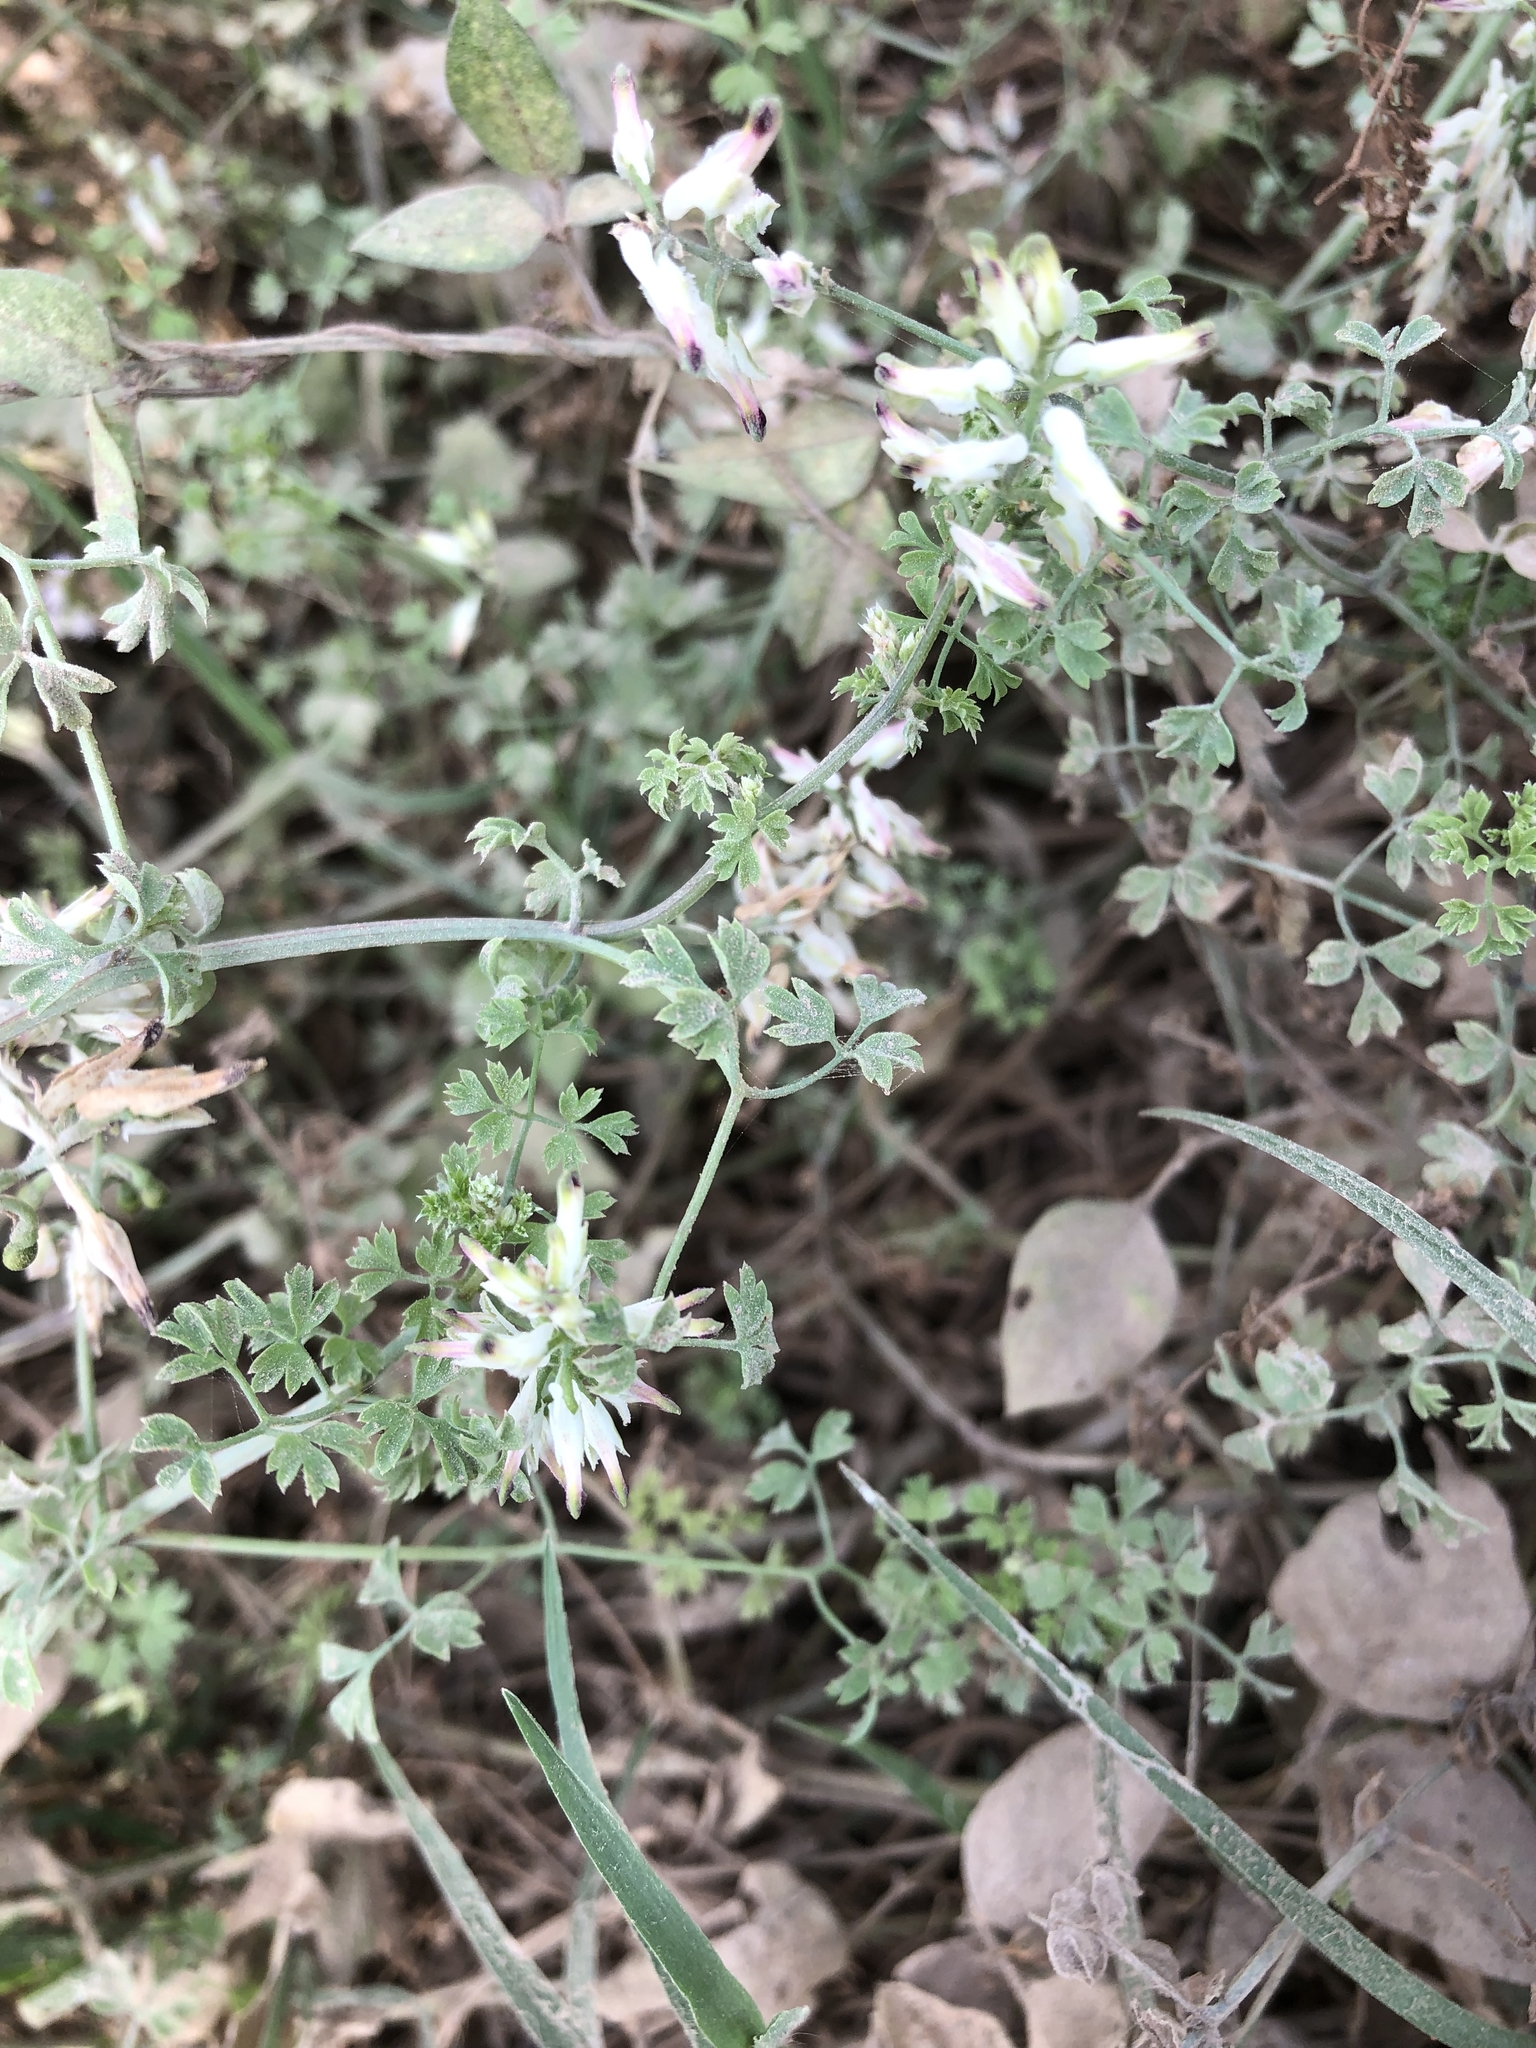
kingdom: Plantae
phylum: Tracheophyta
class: Magnoliopsida
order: Ranunculales
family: Papaveraceae
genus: Fumaria
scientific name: Fumaria capreolata
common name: White ramping-fumitory
